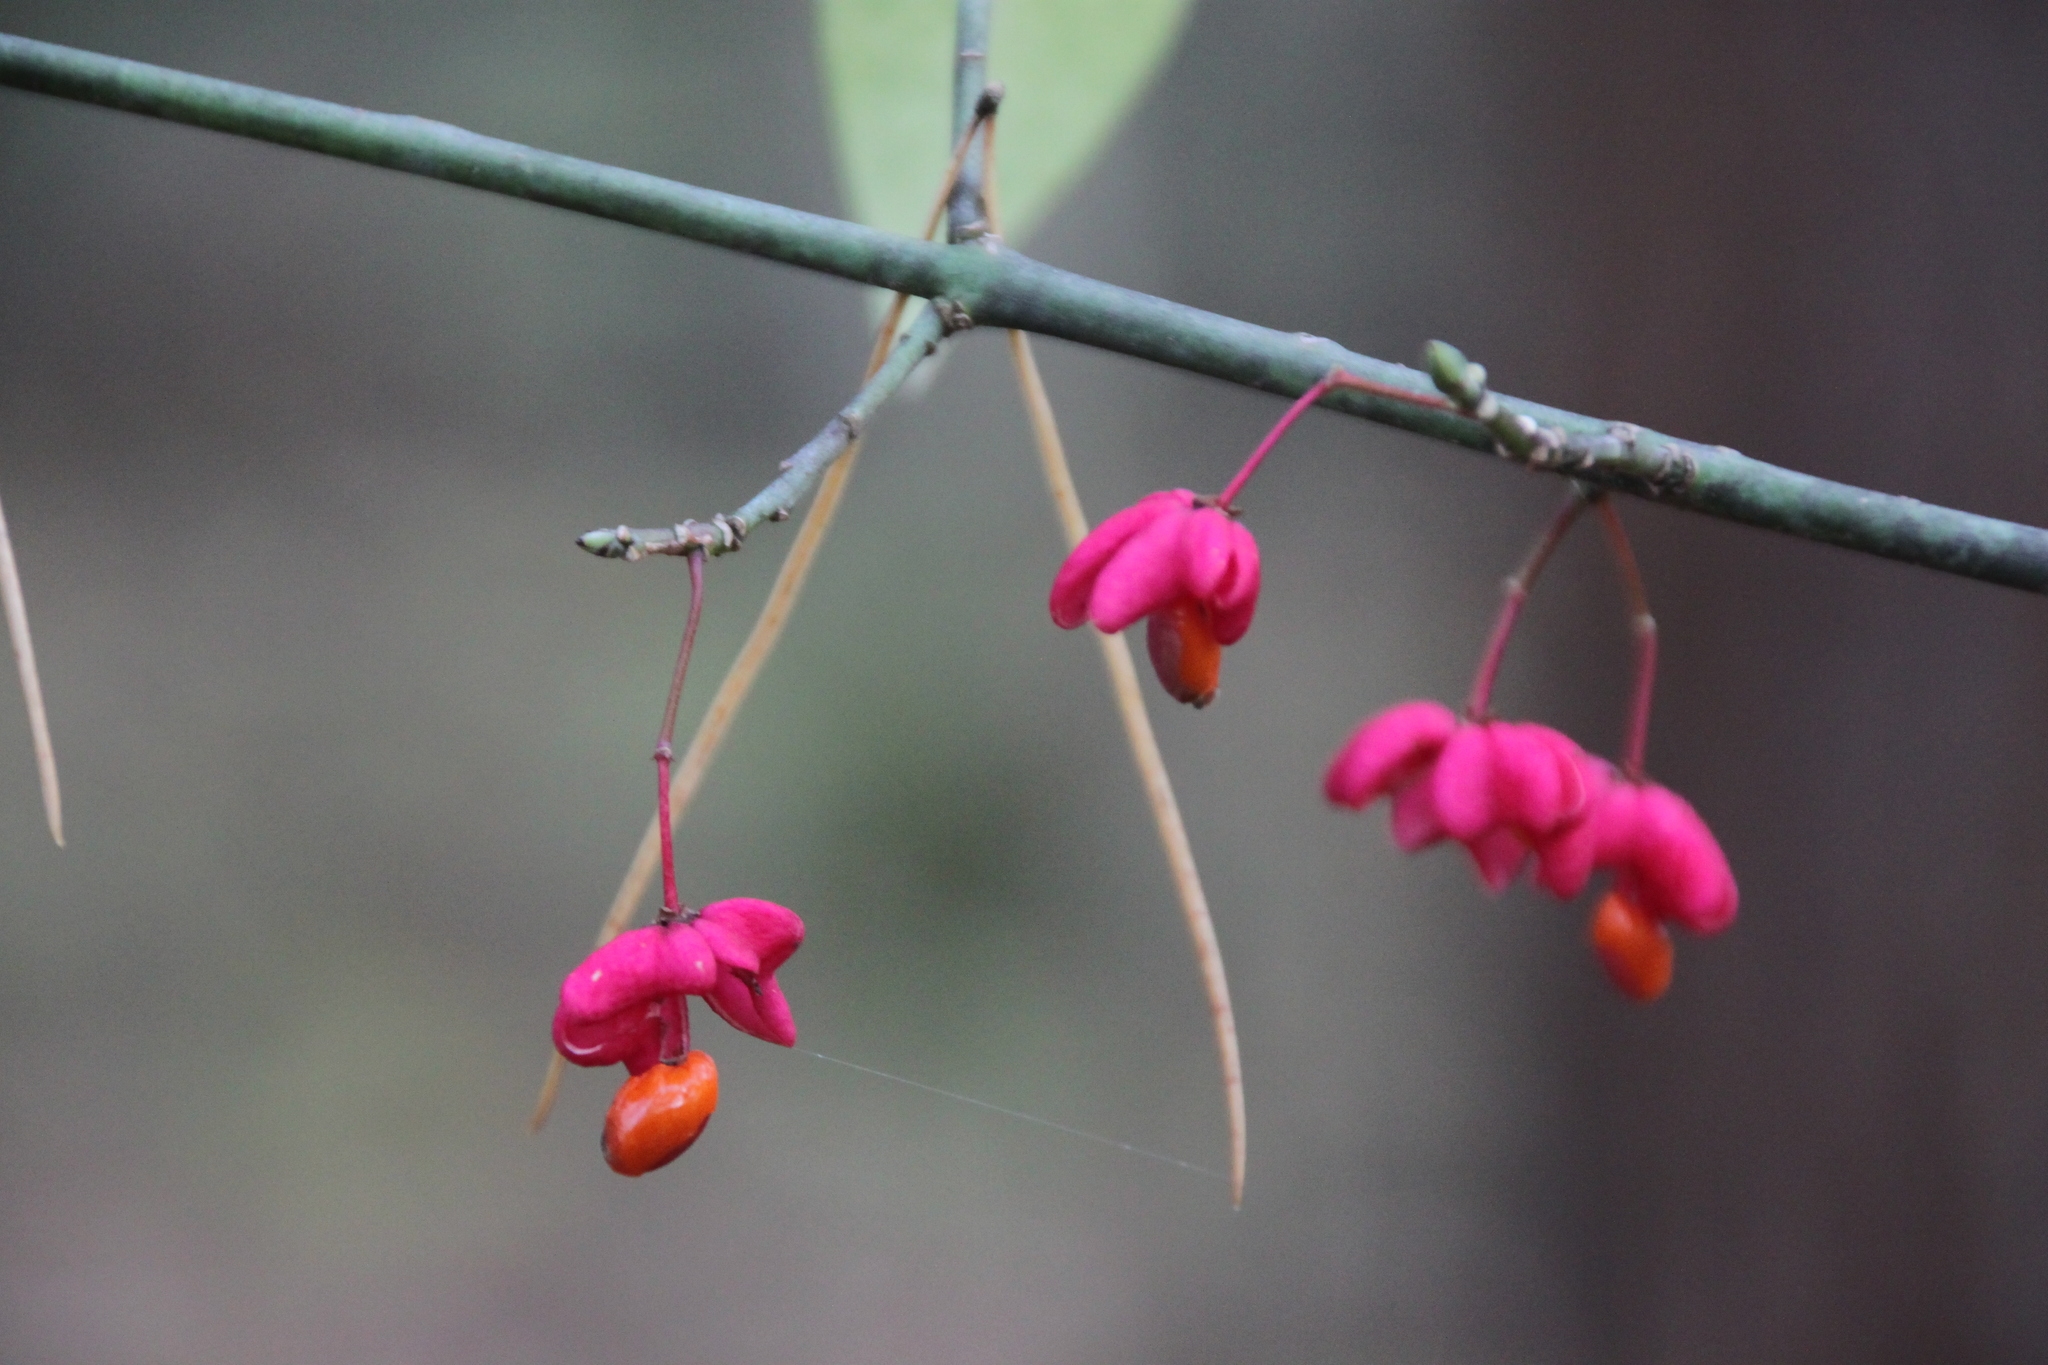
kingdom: Plantae
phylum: Tracheophyta
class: Magnoliopsida
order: Celastrales
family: Celastraceae
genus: Euonymus
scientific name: Euonymus europaeus
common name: Spindle
